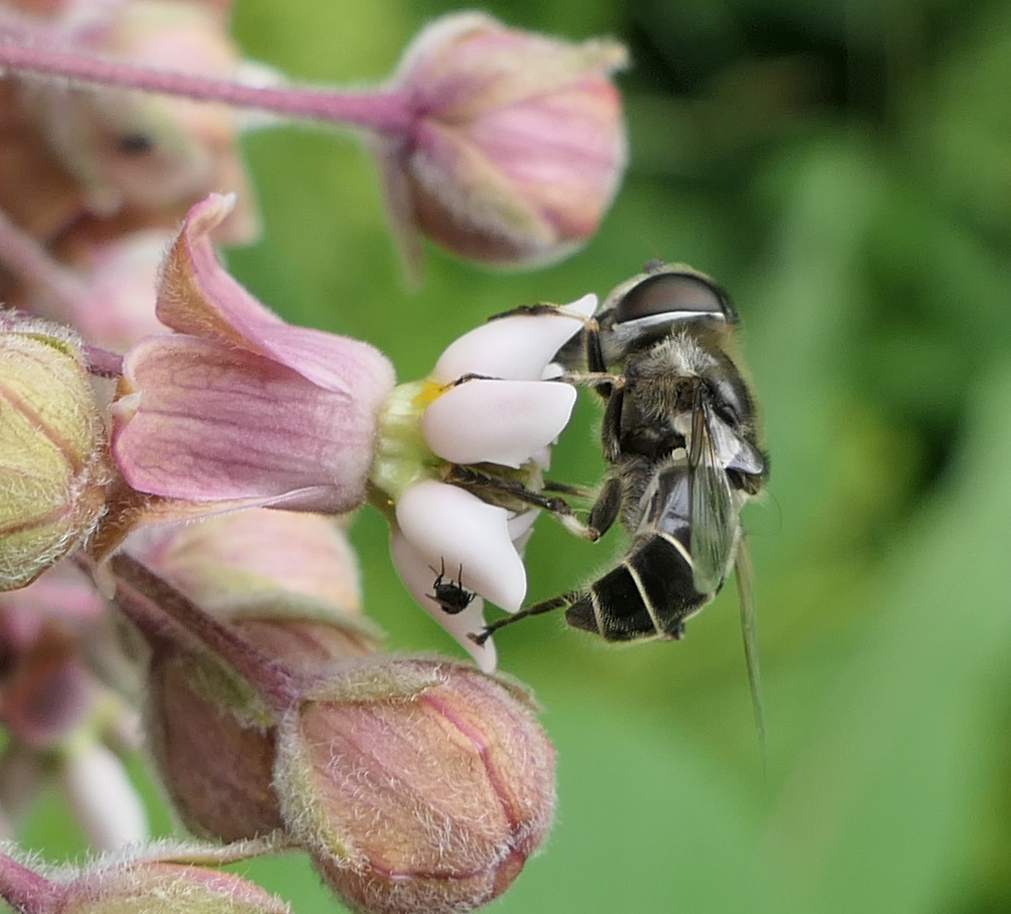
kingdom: Animalia
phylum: Arthropoda
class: Insecta
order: Diptera
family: Syrphidae
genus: Eristalis
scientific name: Eristalis dimidiata
